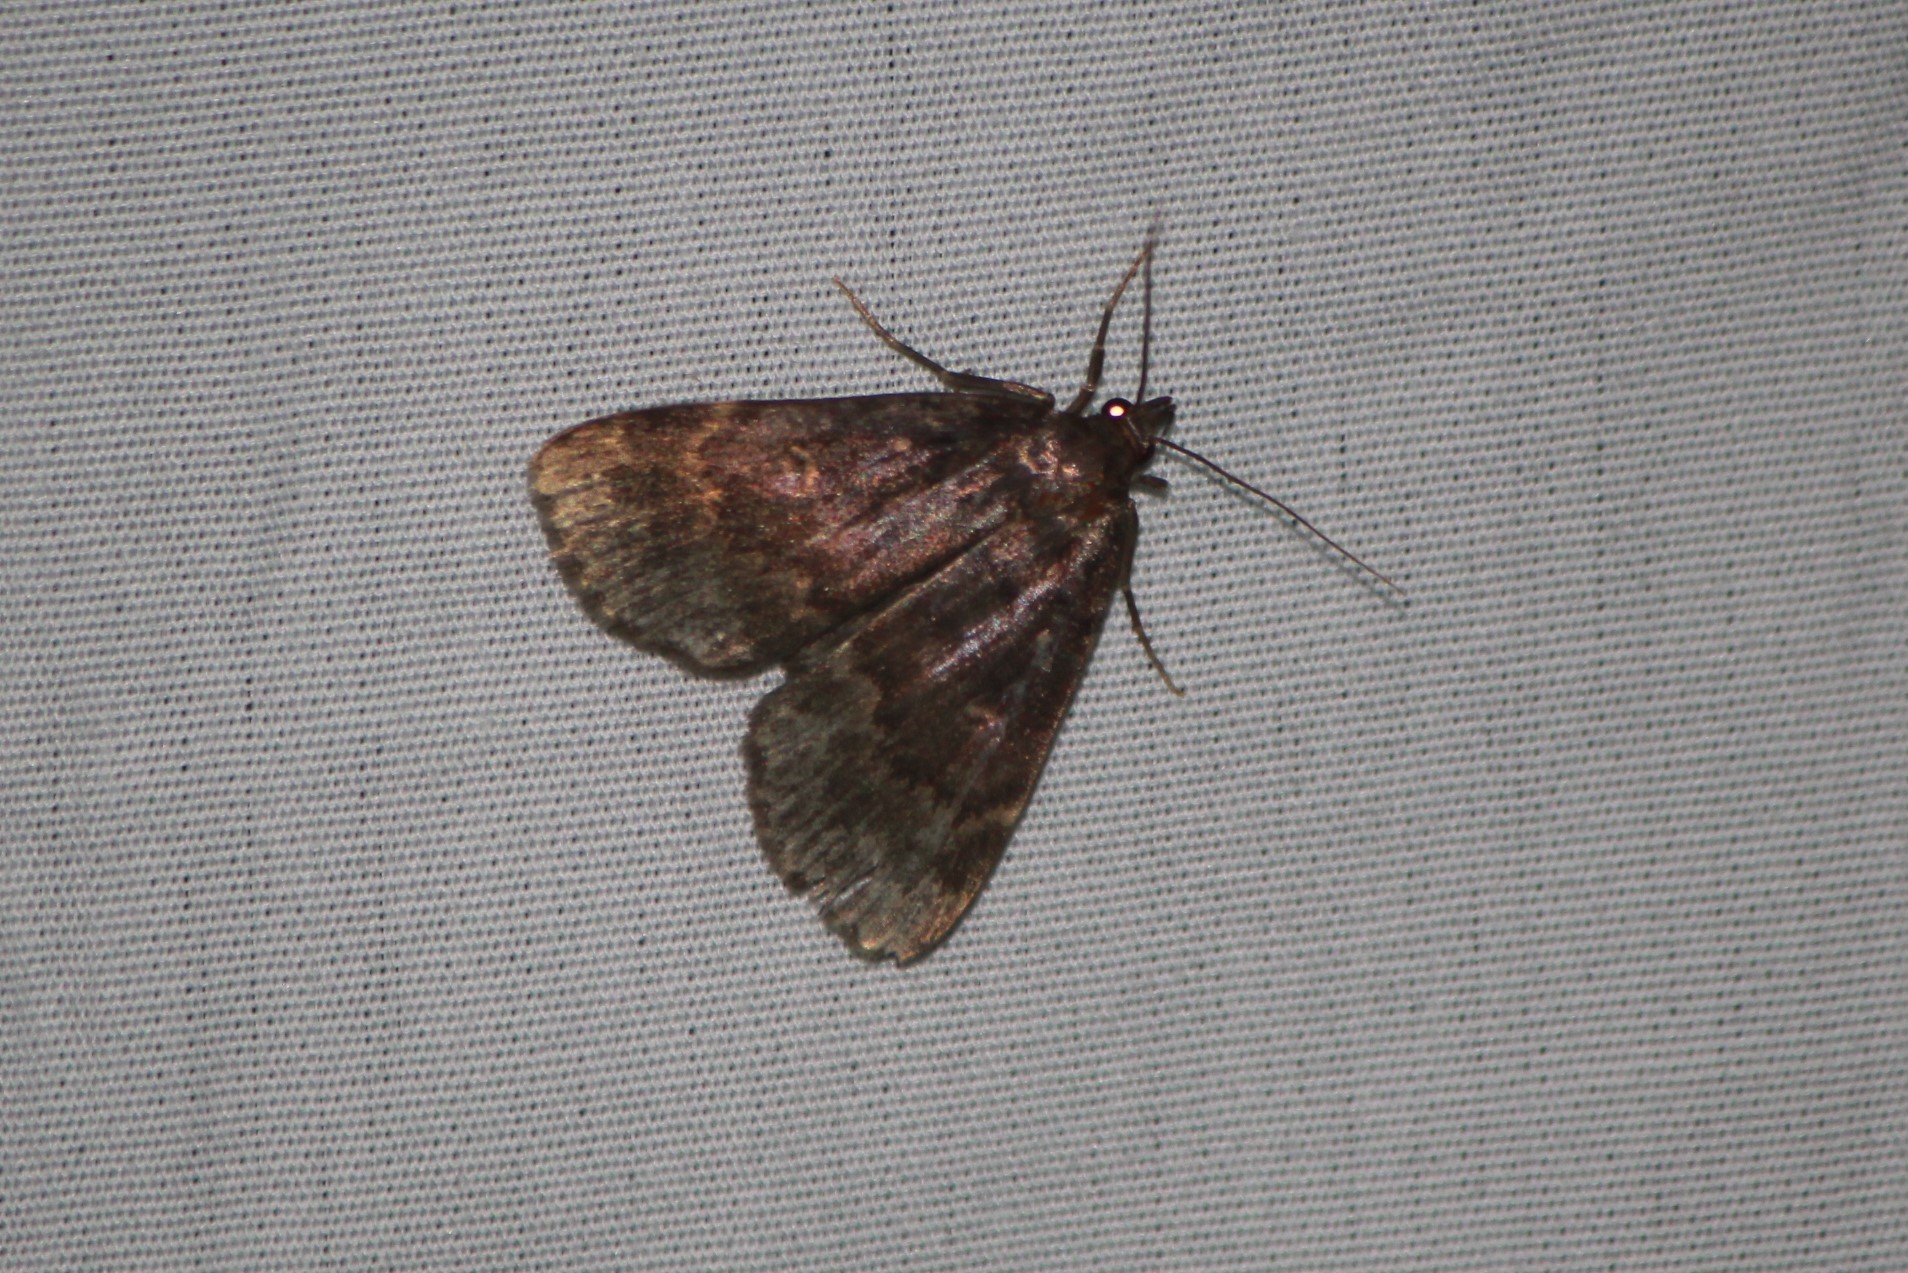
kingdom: Animalia
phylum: Arthropoda
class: Insecta
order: Lepidoptera
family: Erebidae
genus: Idia
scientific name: Idia lubricalis
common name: Twin-striped tabby
